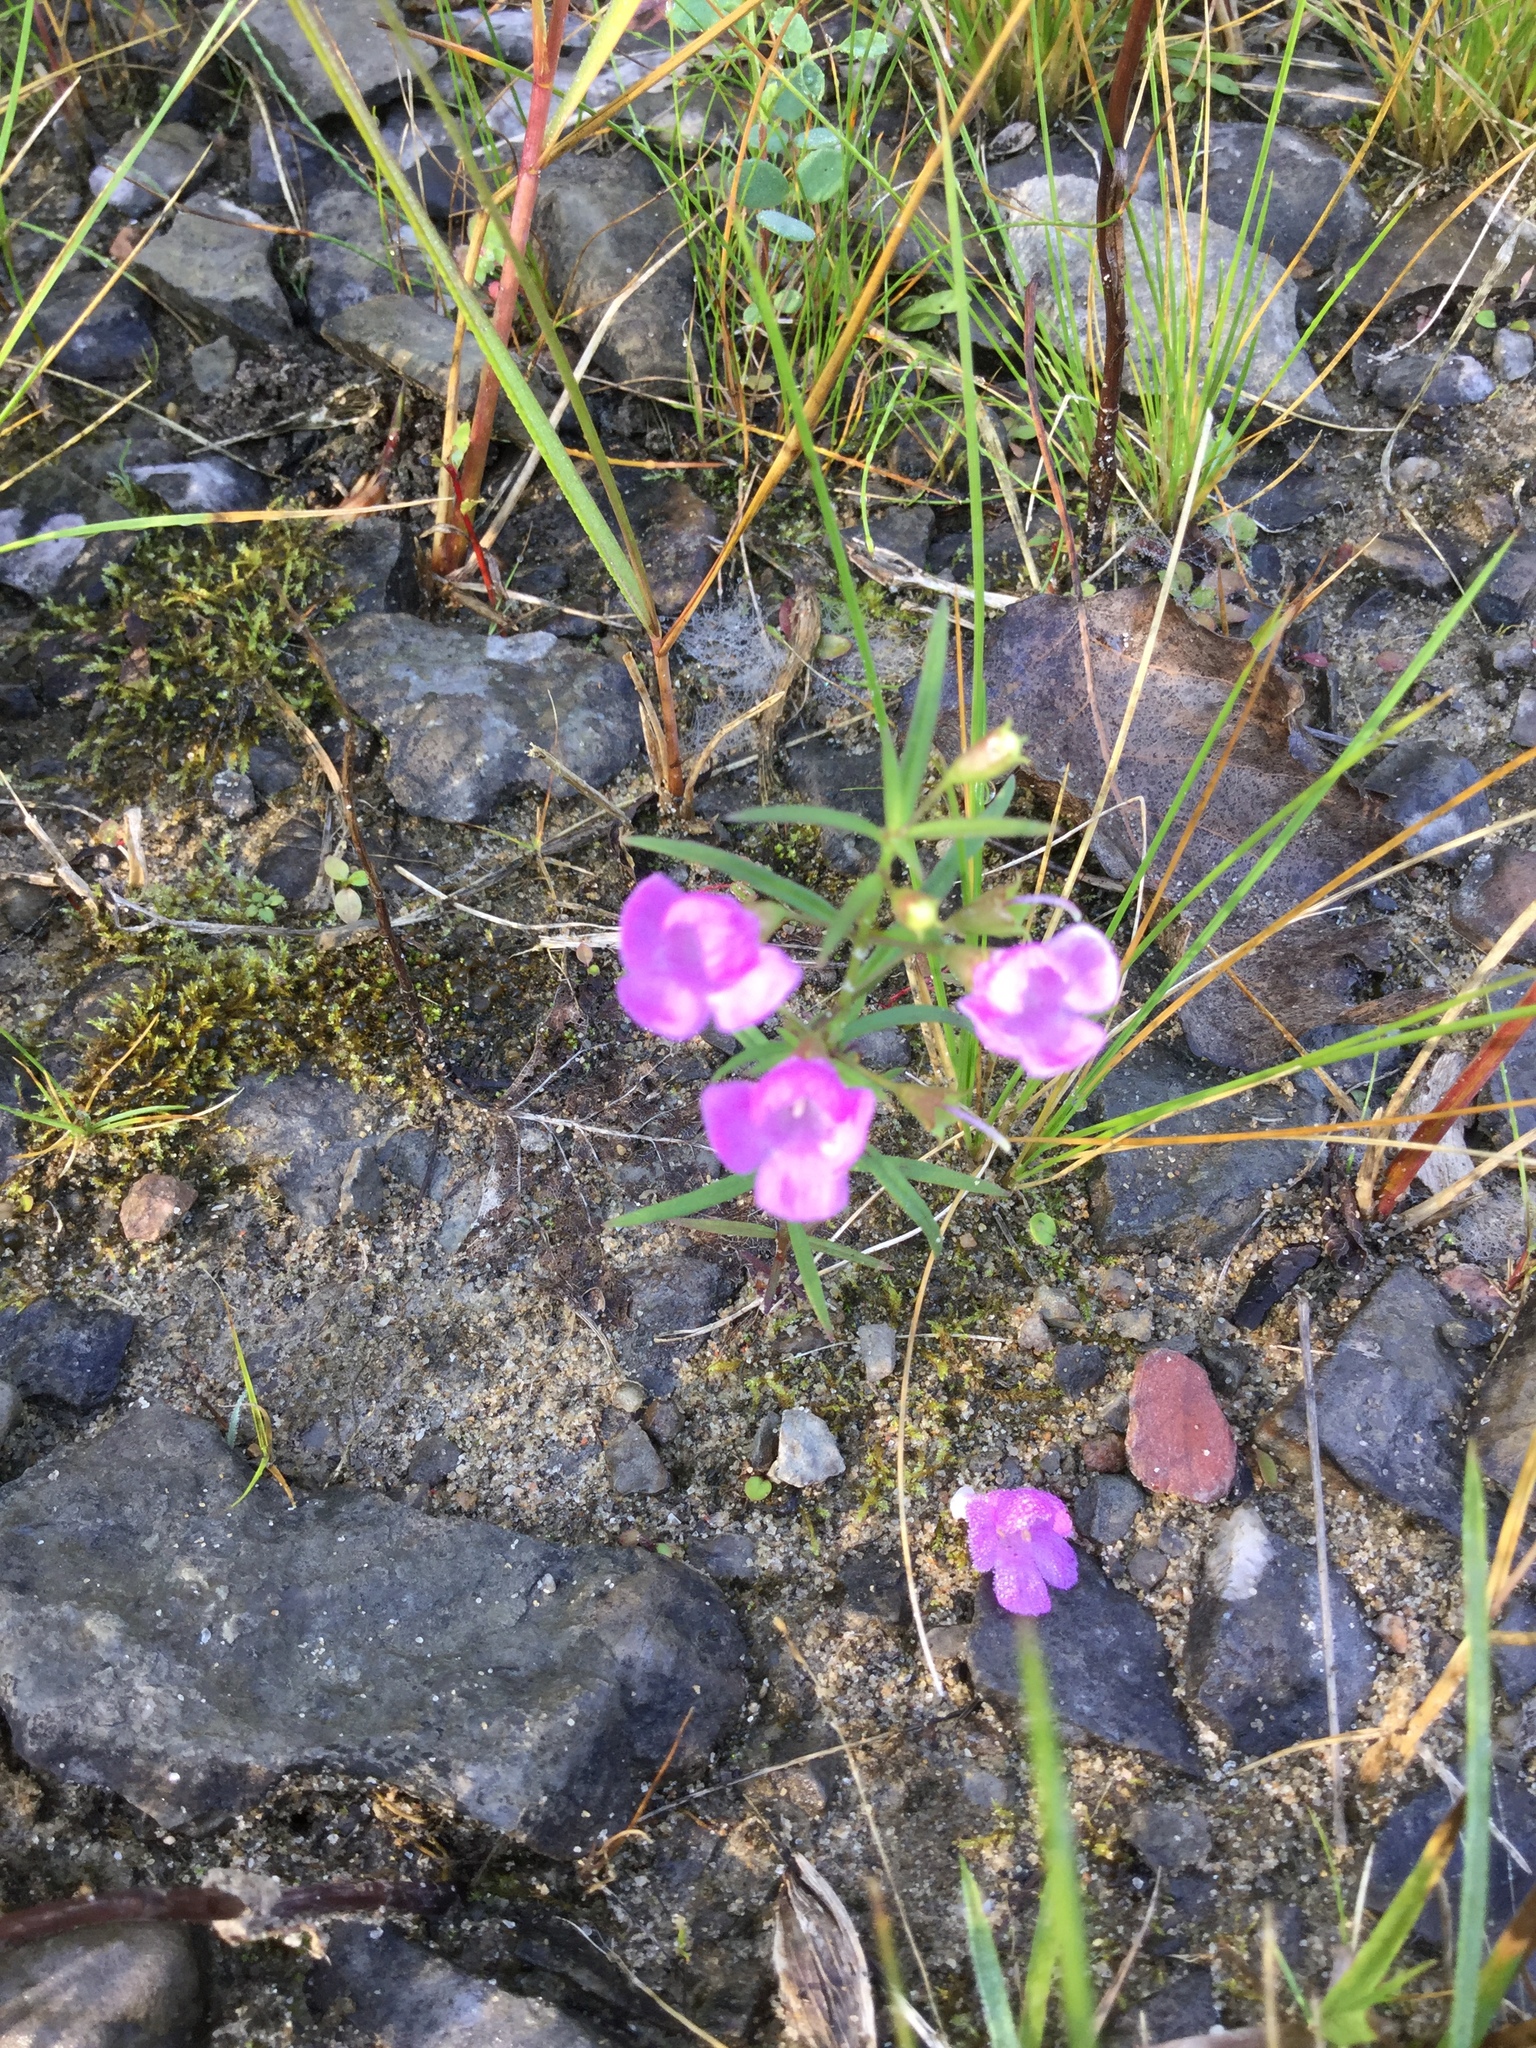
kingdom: Plantae
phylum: Tracheophyta
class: Magnoliopsida
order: Lamiales
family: Orobanchaceae
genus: Agalinis
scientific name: Agalinis tenuifolia
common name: Slender agalinis
